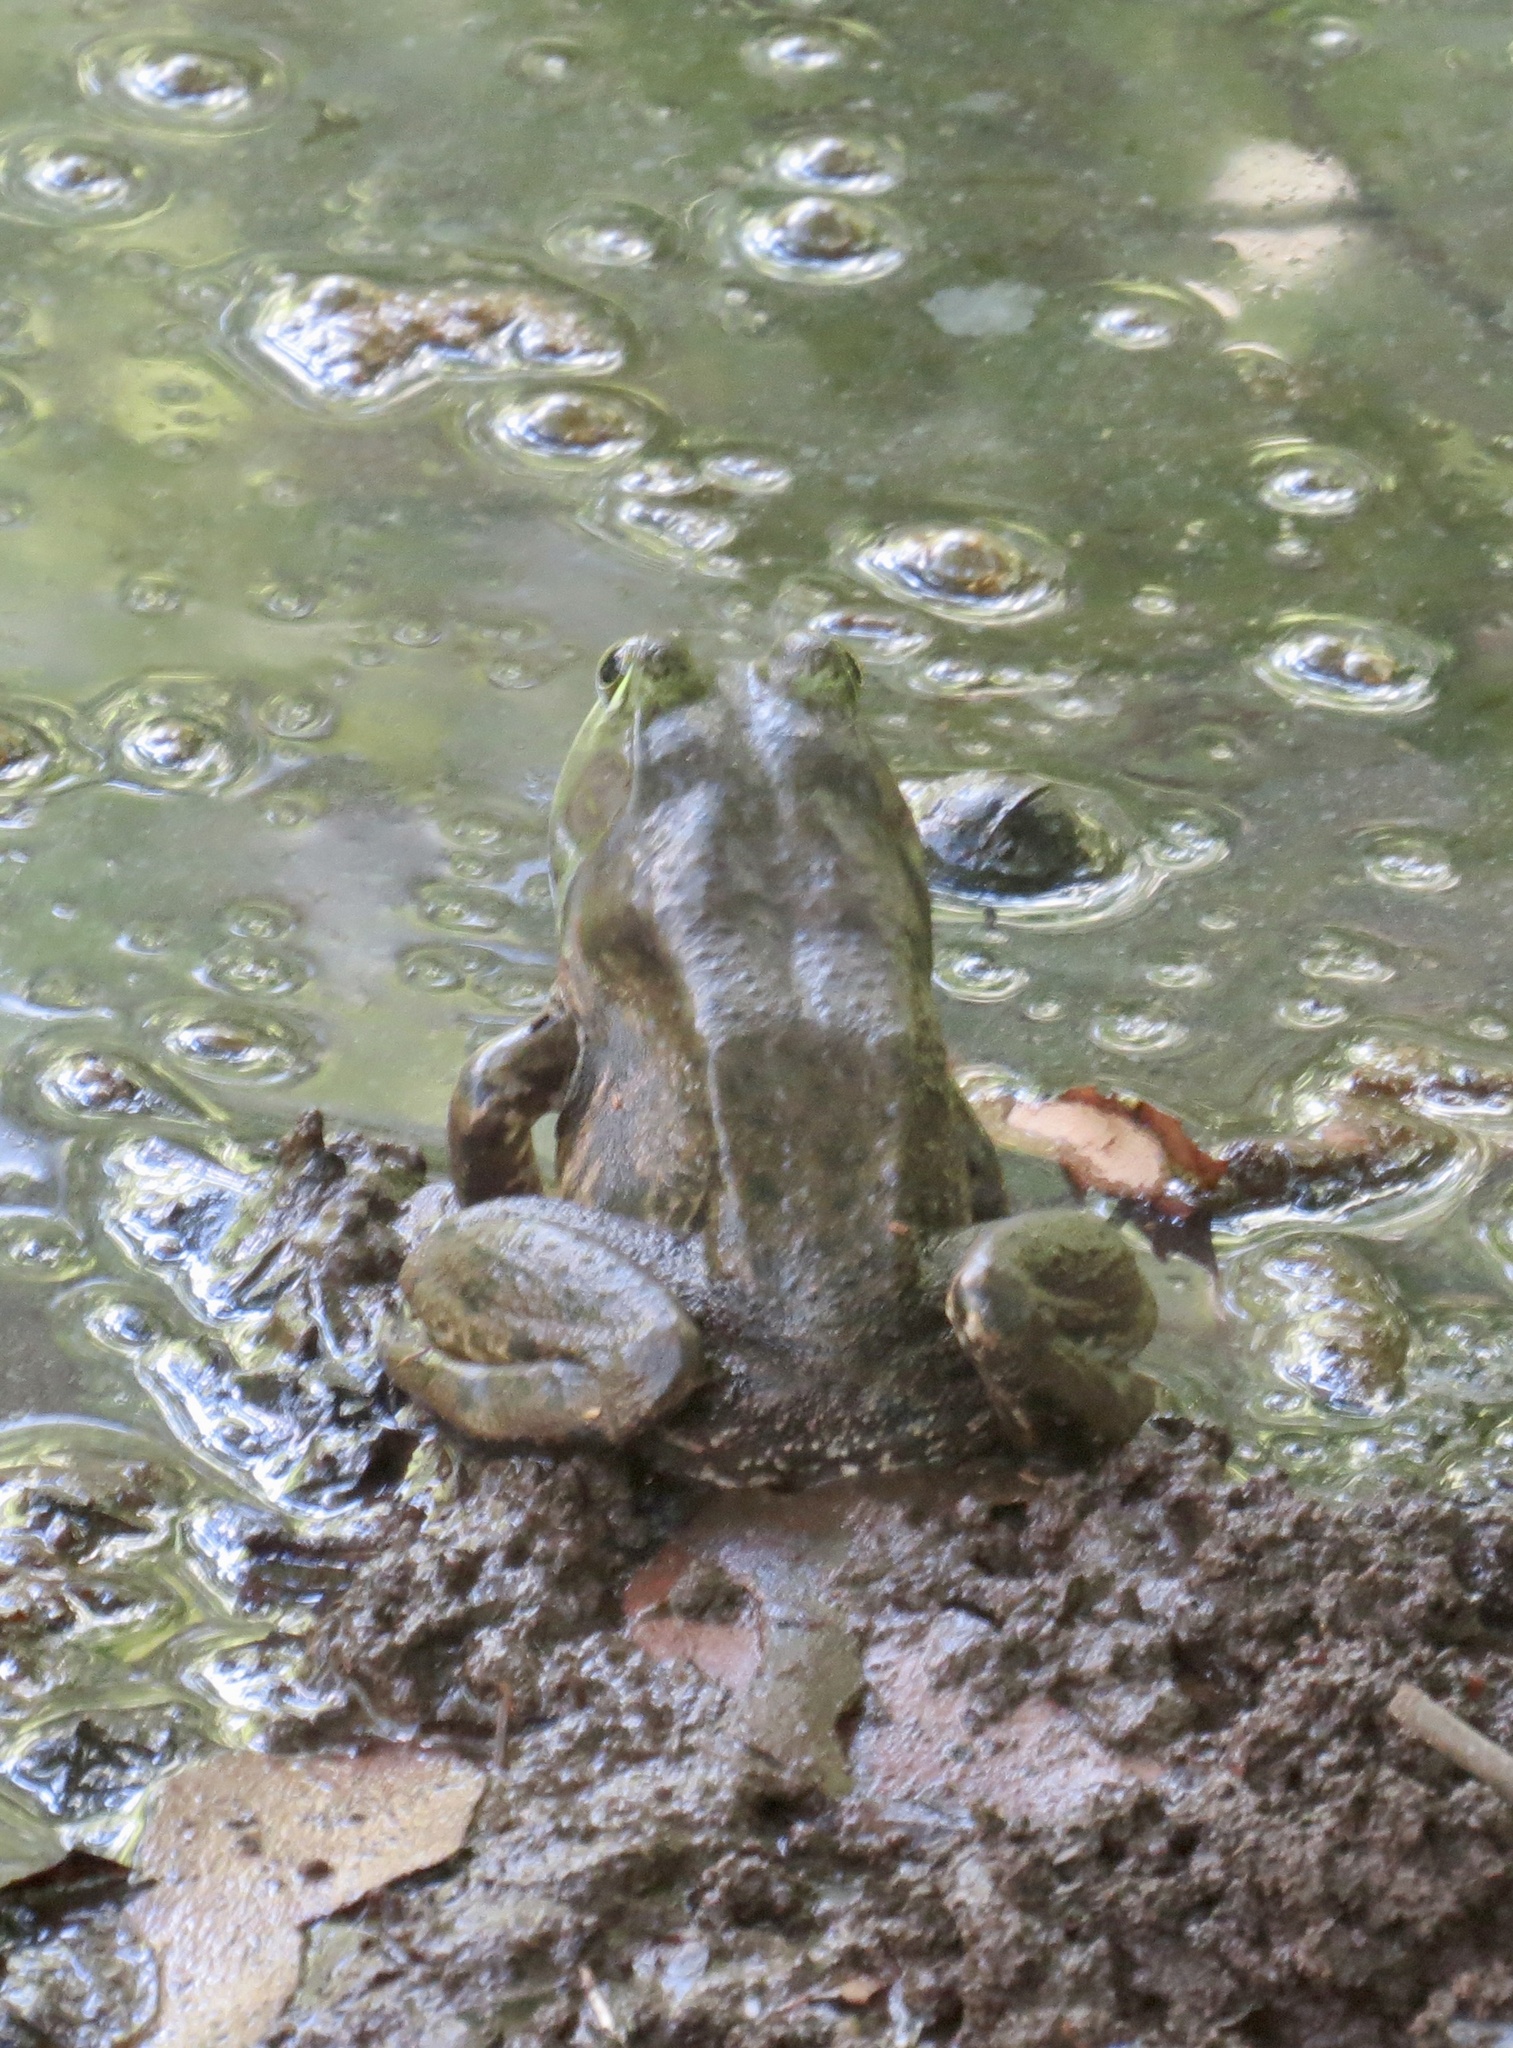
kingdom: Animalia
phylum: Chordata
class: Amphibia
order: Anura
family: Ranidae
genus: Lithobates
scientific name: Lithobates catesbeianus
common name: American bullfrog
